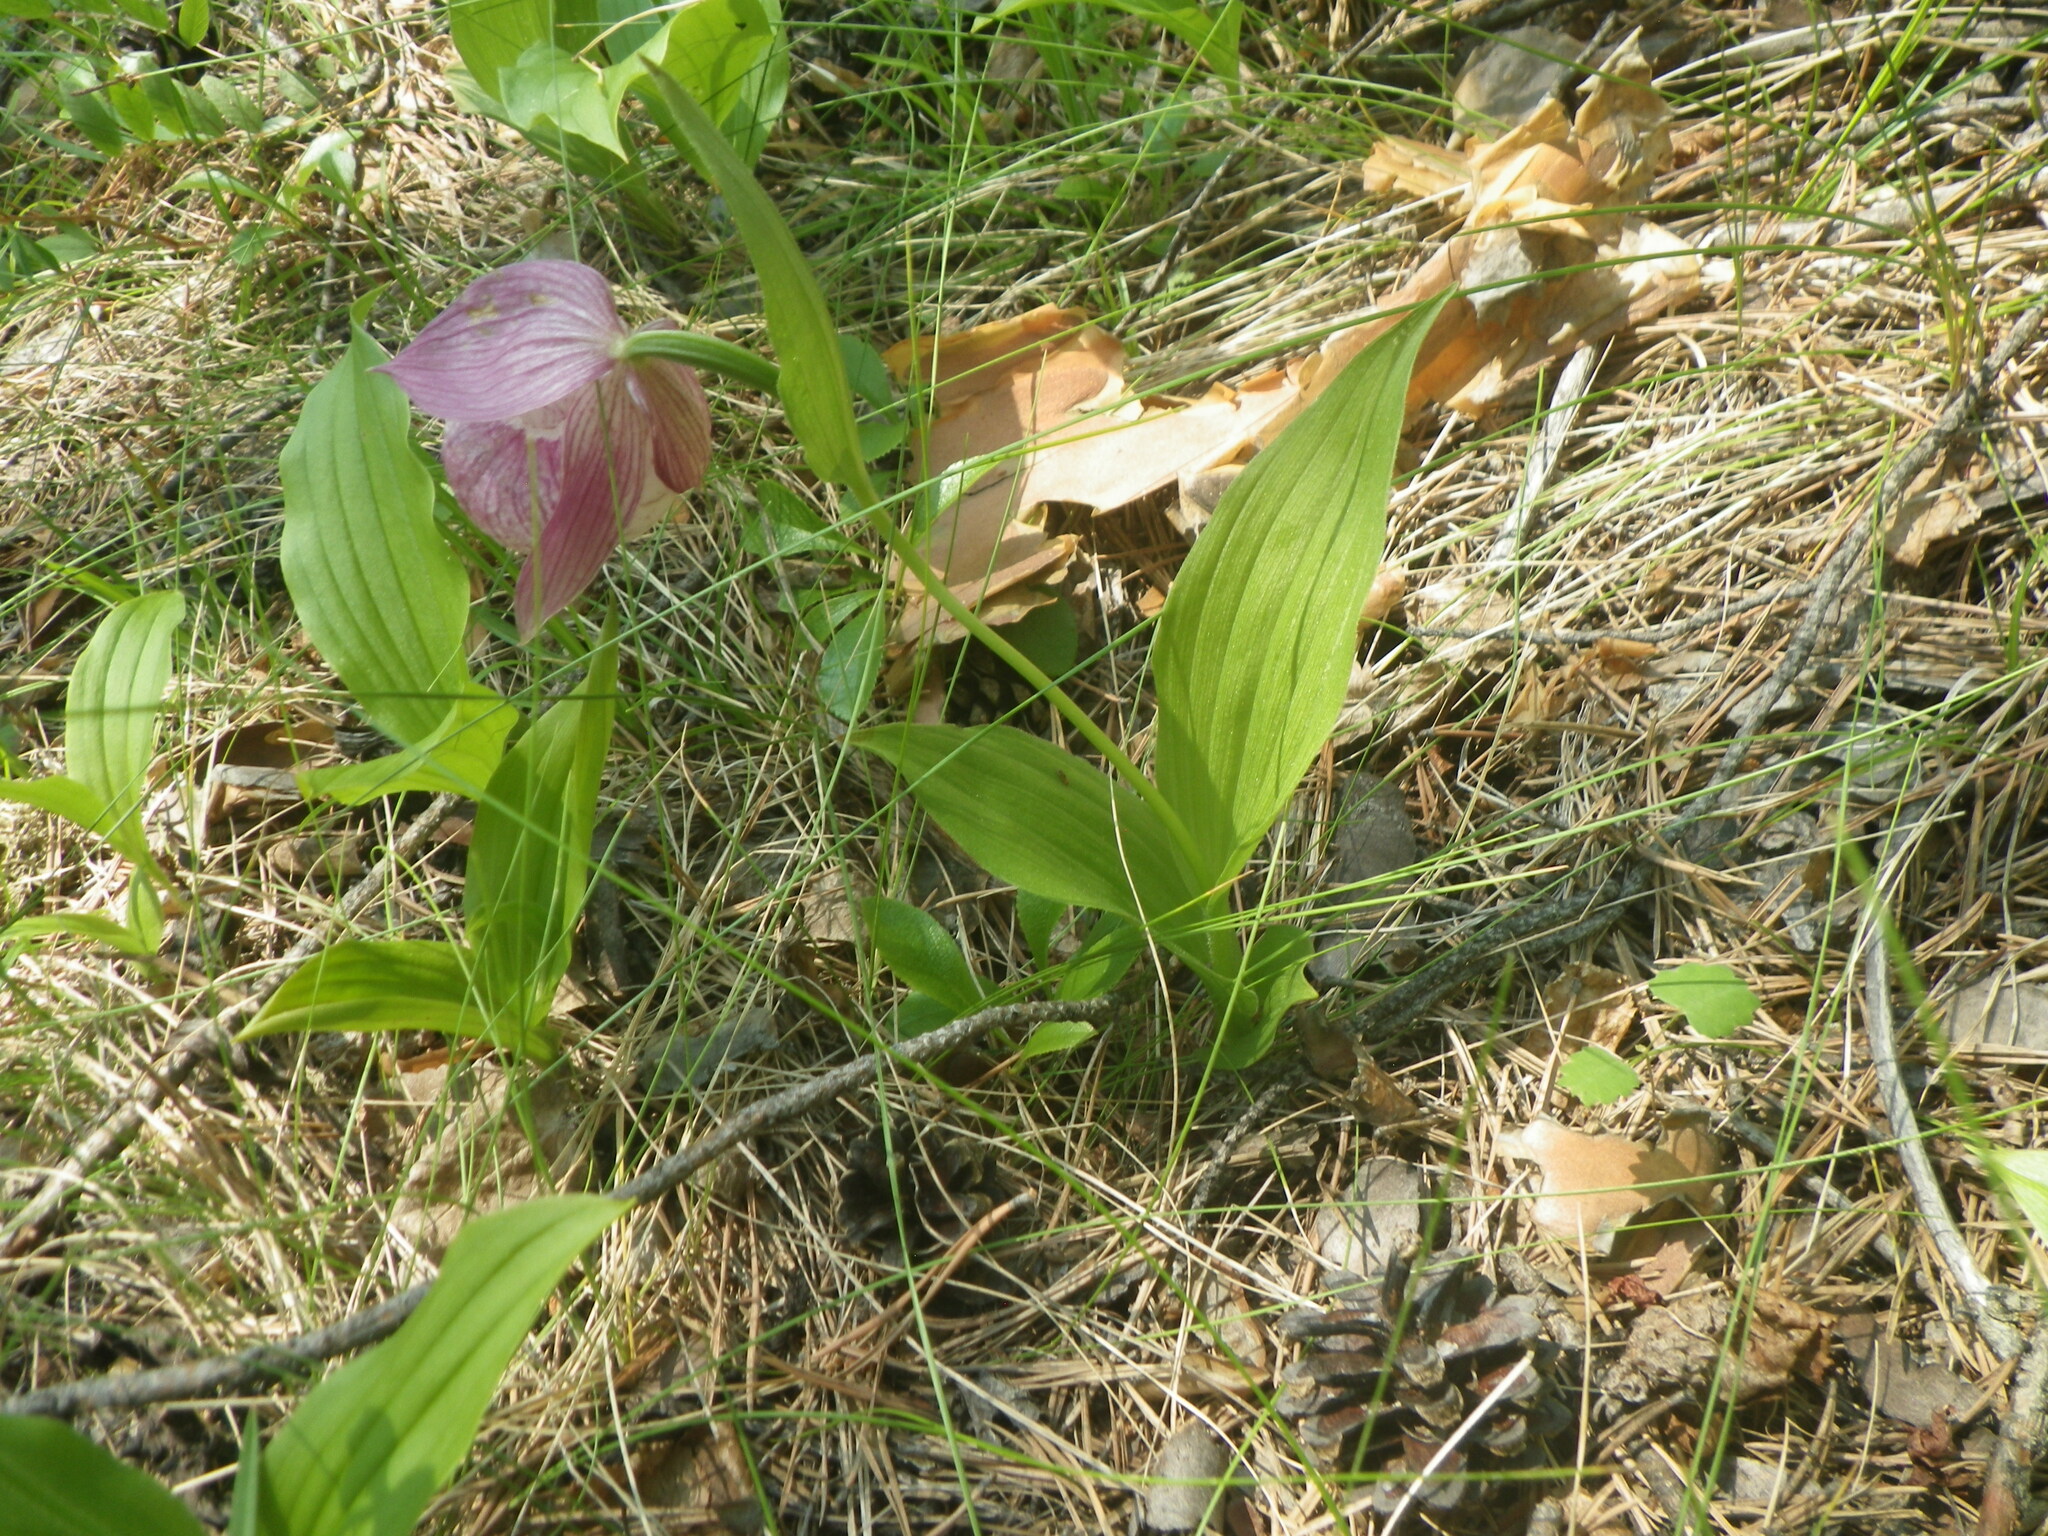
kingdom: Plantae
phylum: Tracheophyta
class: Liliopsida
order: Asparagales
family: Orchidaceae
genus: Cypripedium
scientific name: Cypripedium macranthos
